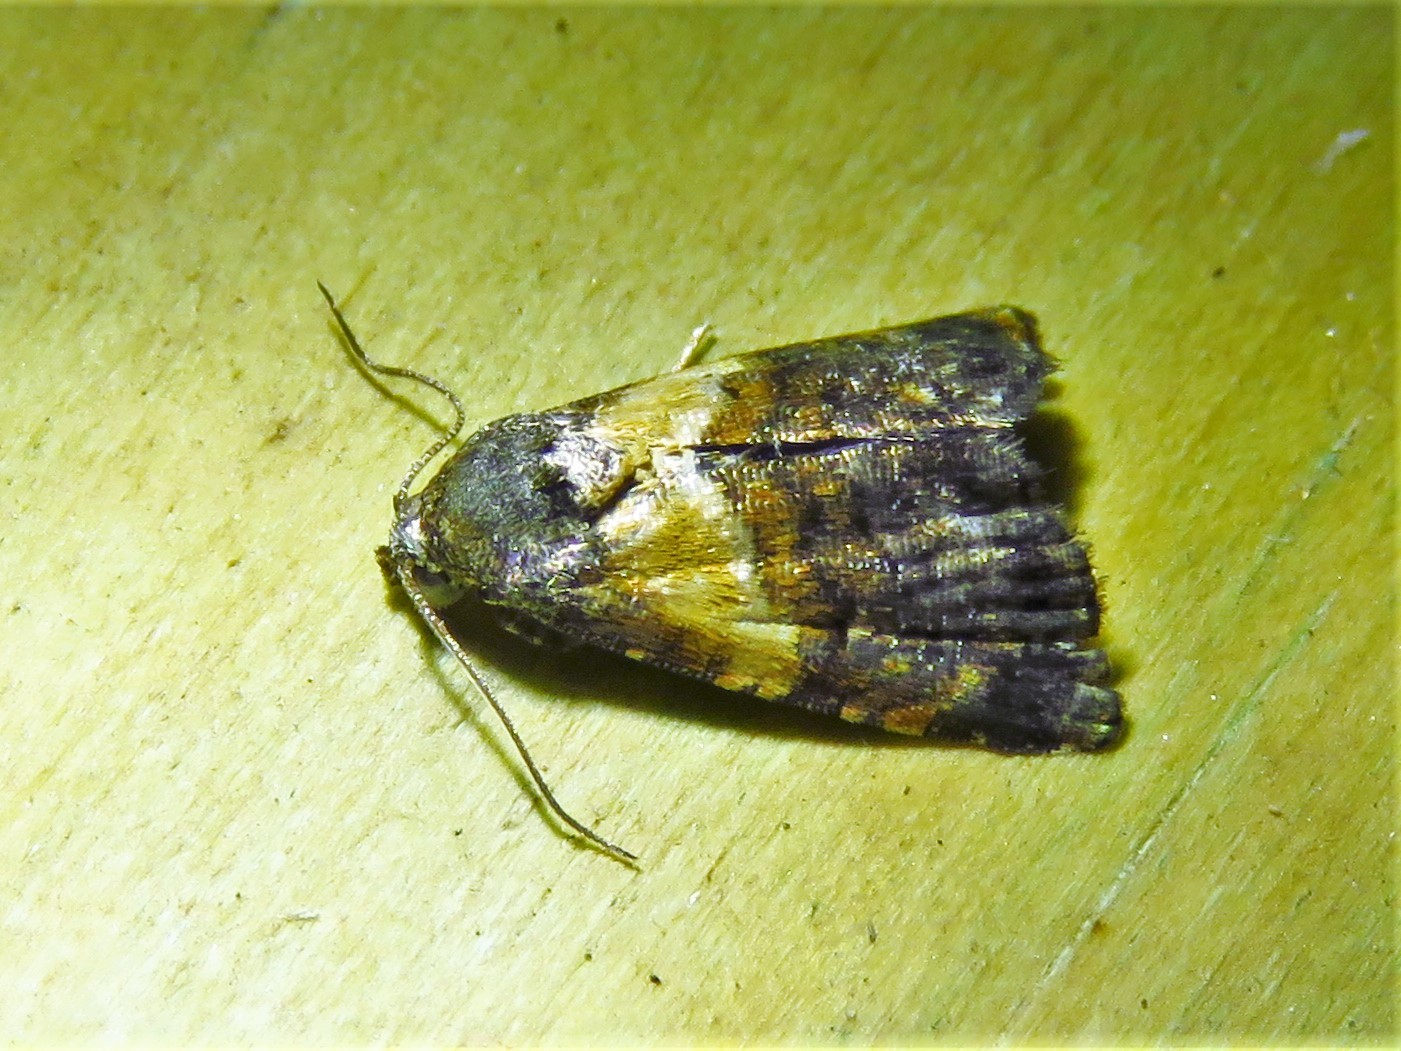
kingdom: Animalia
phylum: Arthropoda
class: Insecta
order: Lepidoptera
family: Noctuidae
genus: Tripudia
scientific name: Tripudia flavofasciata
